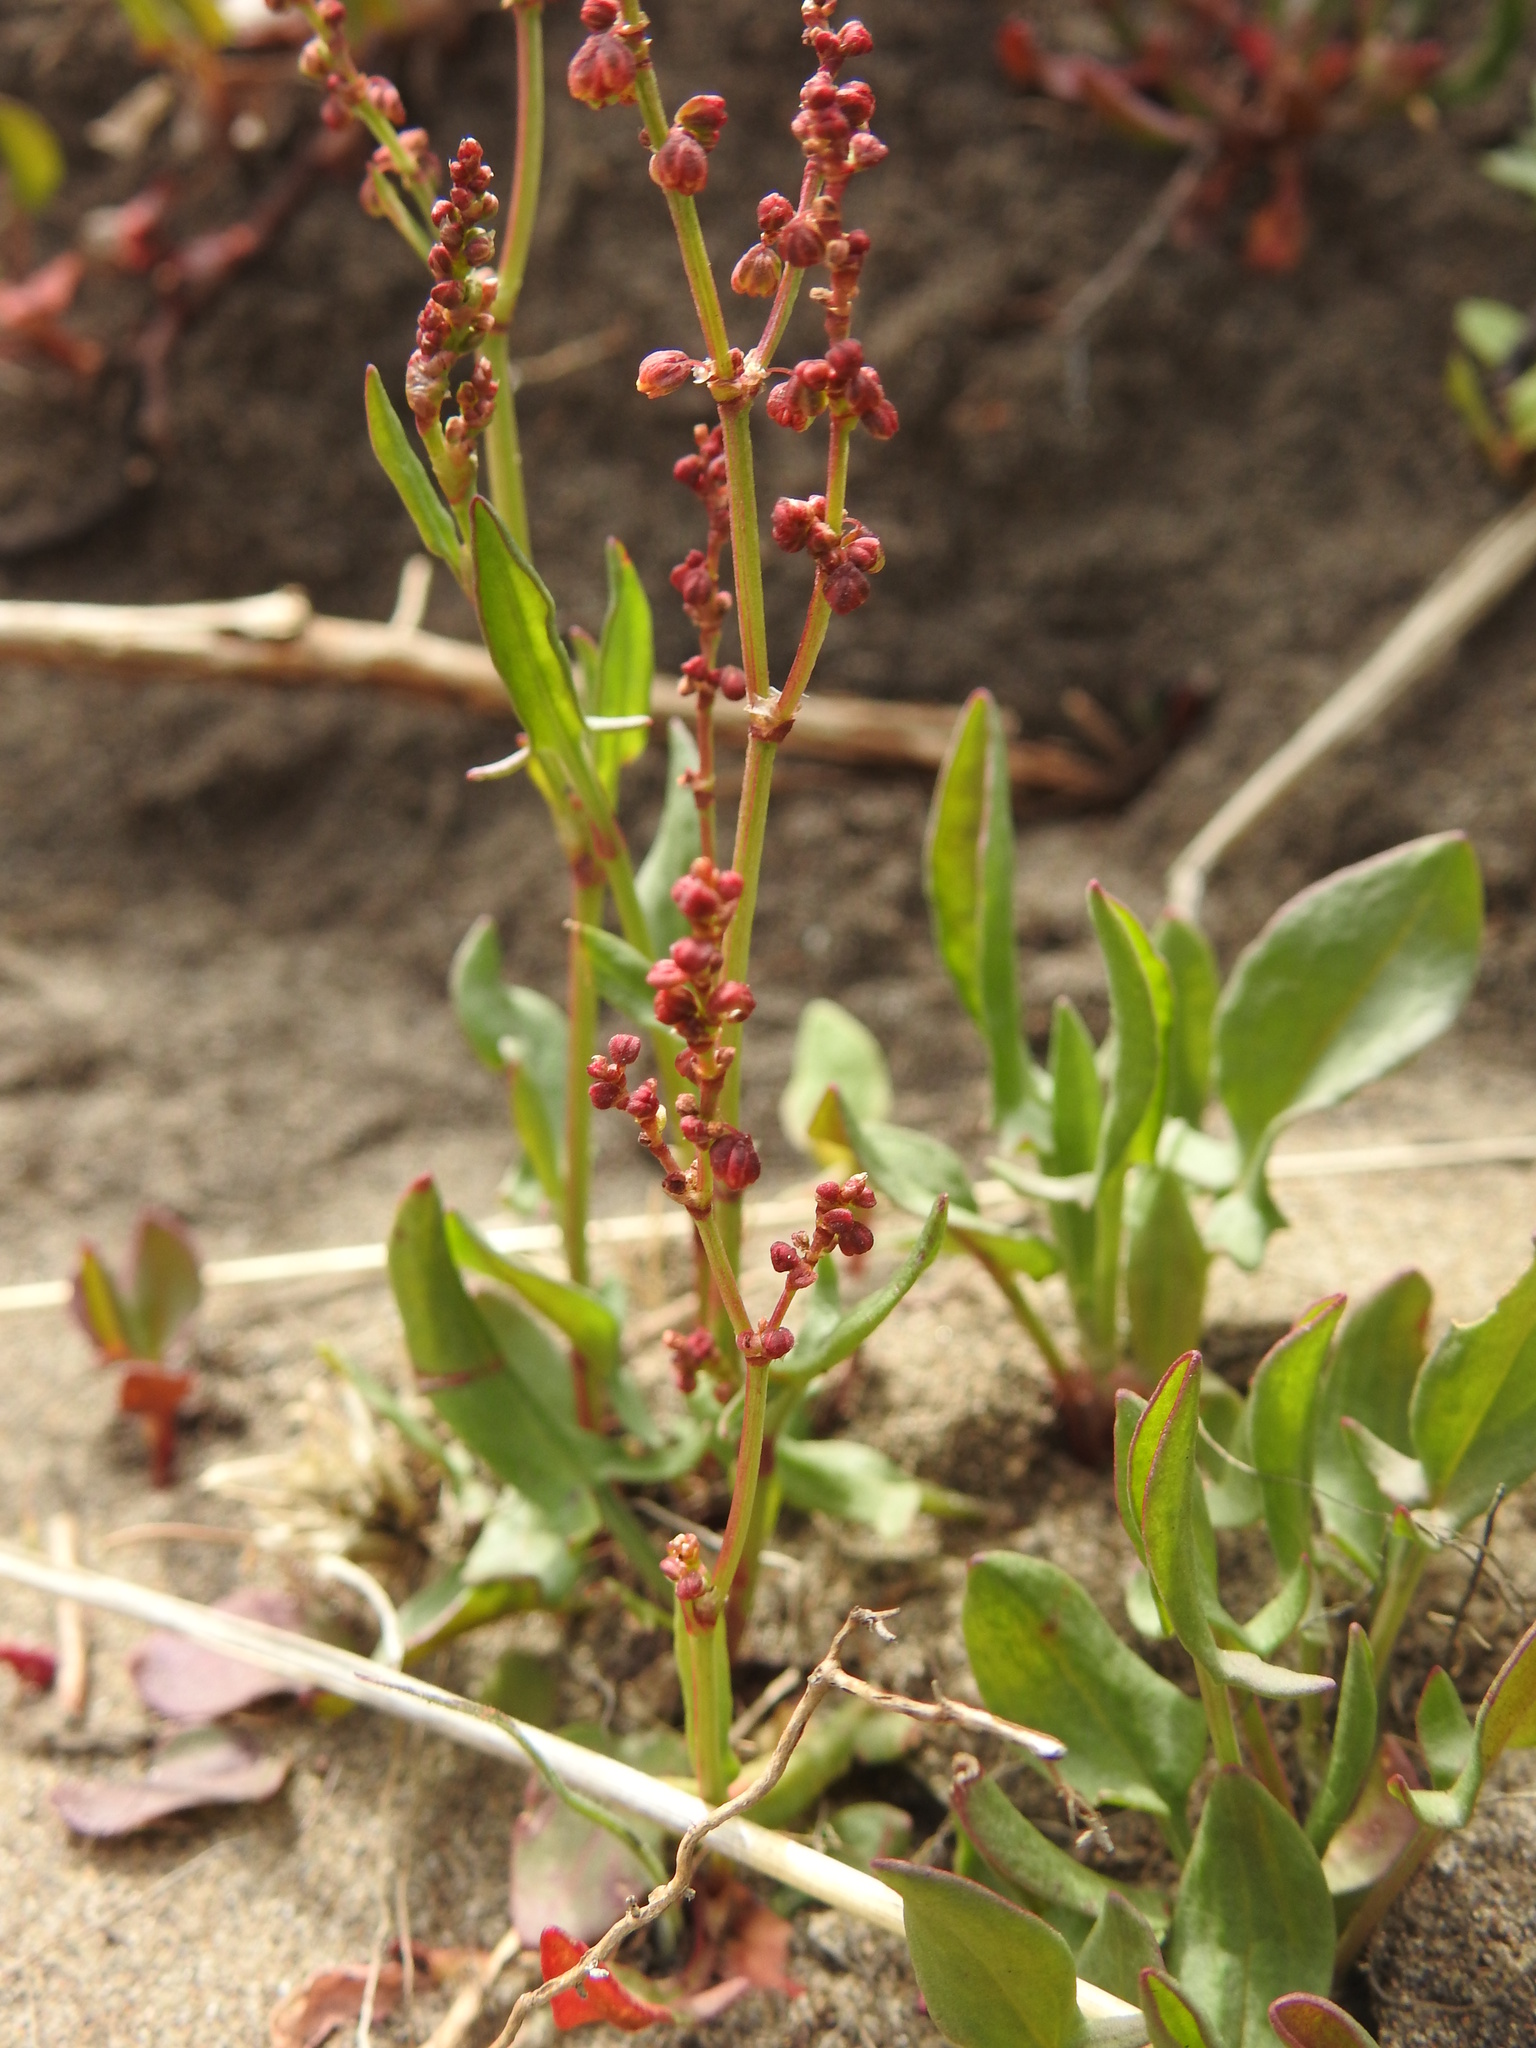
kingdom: Plantae
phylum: Tracheophyta
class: Magnoliopsida
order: Caryophyllales
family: Polygonaceae
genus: Rumex
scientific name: Rumex acetosella
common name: Common sheep sorrel
